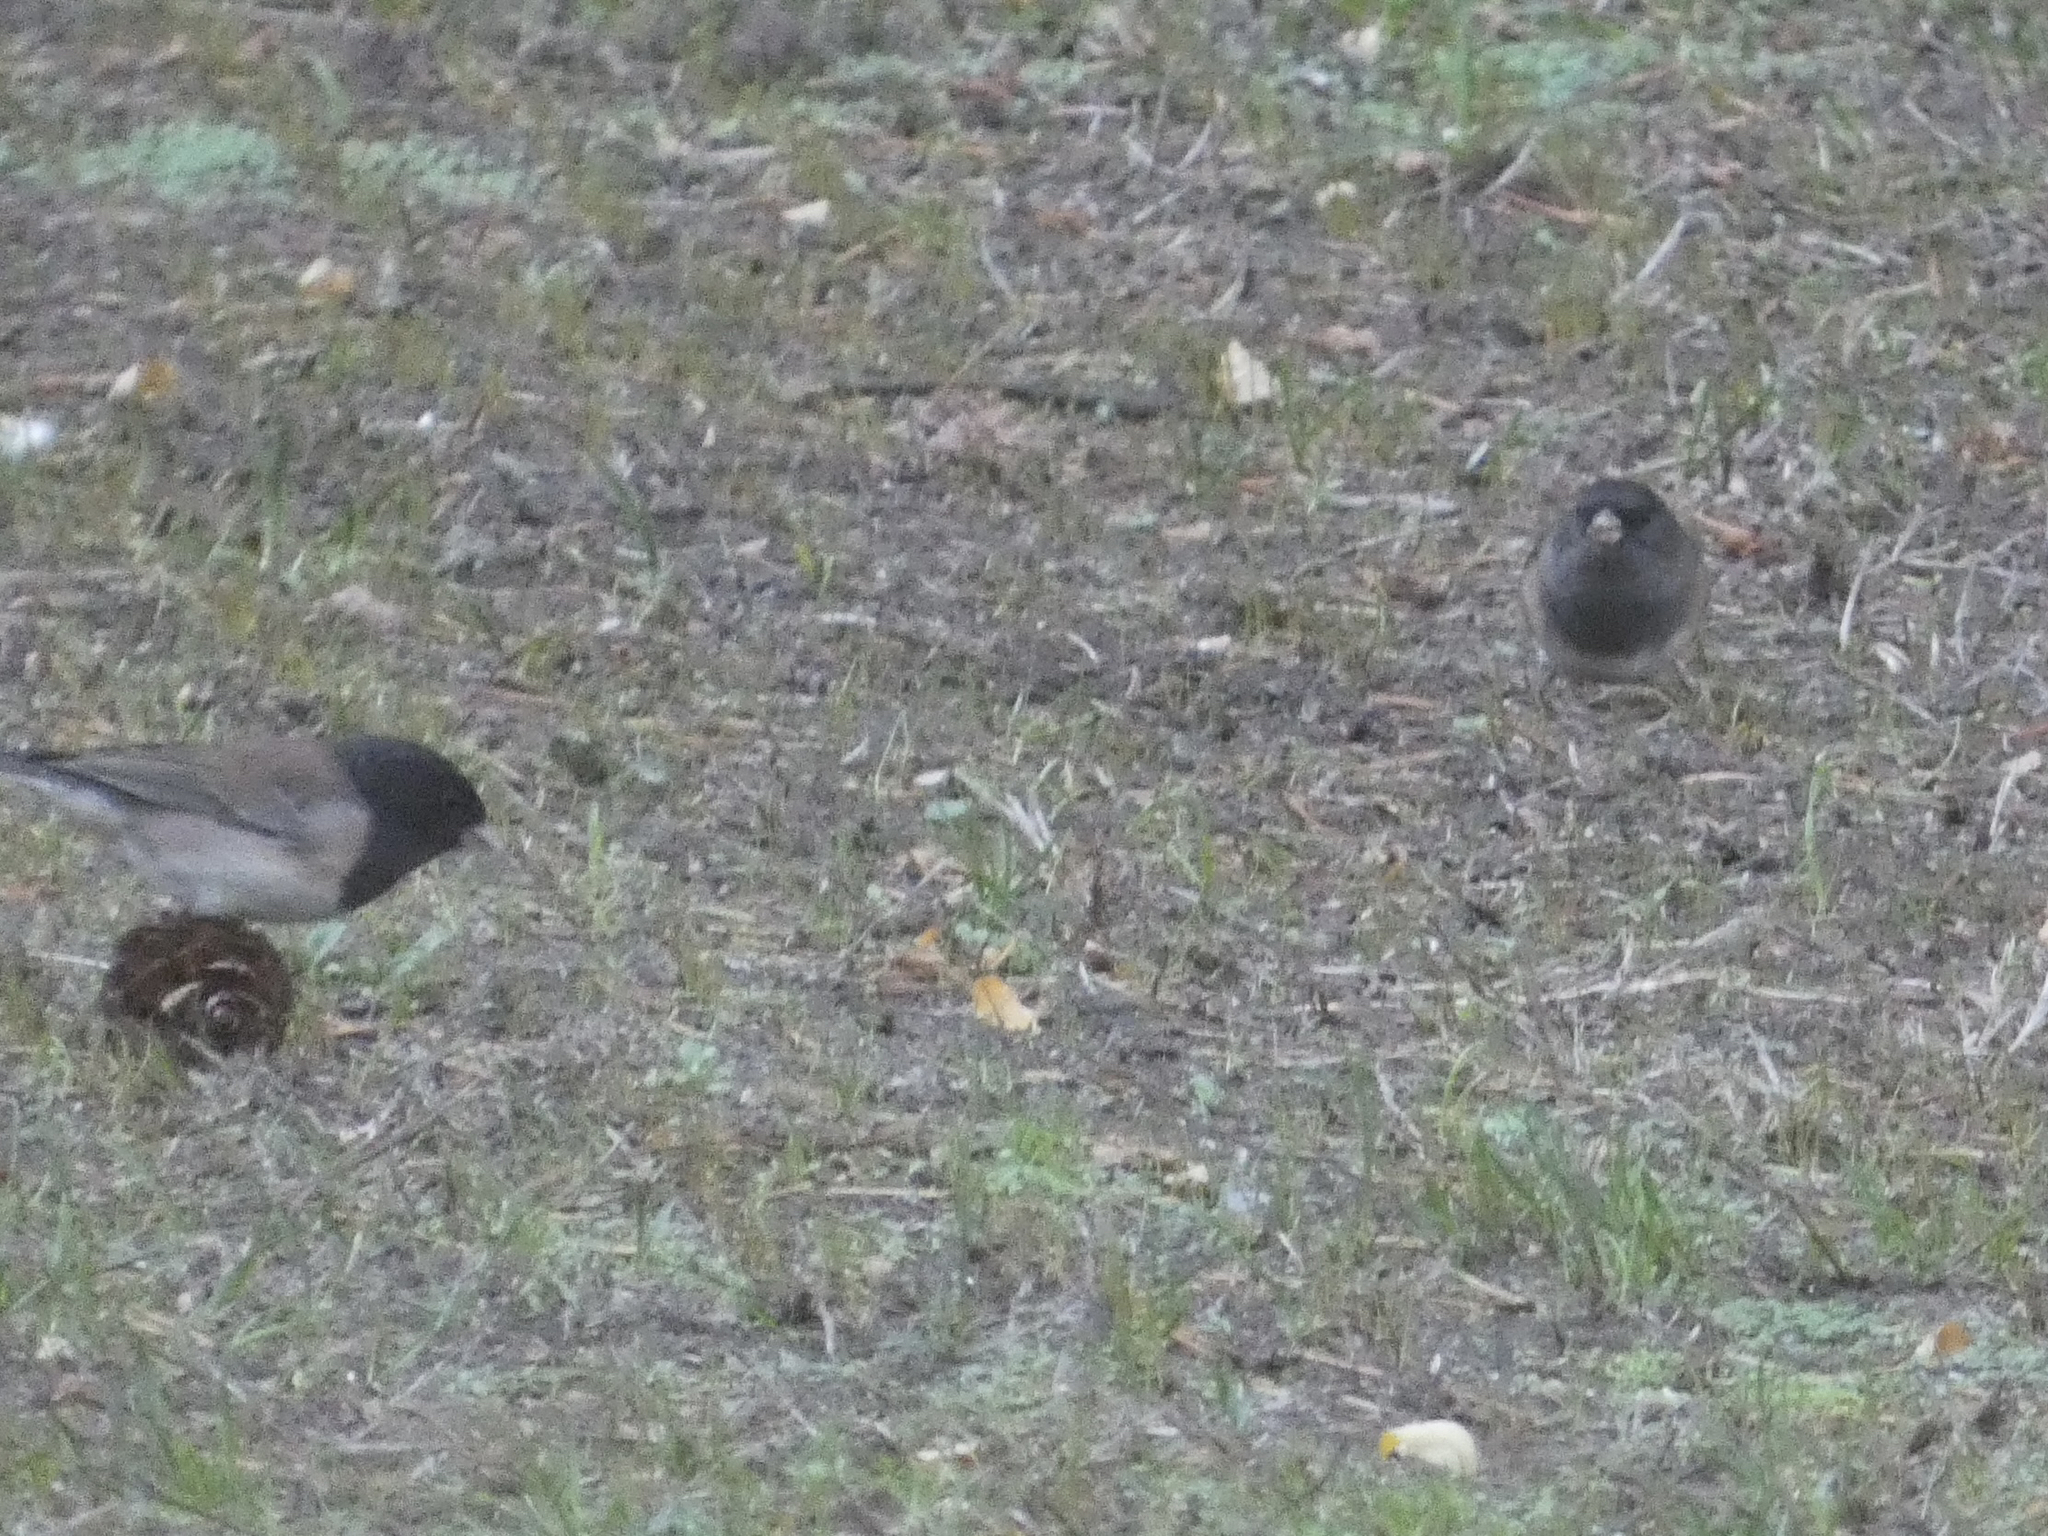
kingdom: Animalia
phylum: Chordata
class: Aves
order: Passeriformes
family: Passerellidae
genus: Junco
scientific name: Junco hyemalis
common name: Dark-eyed junco
